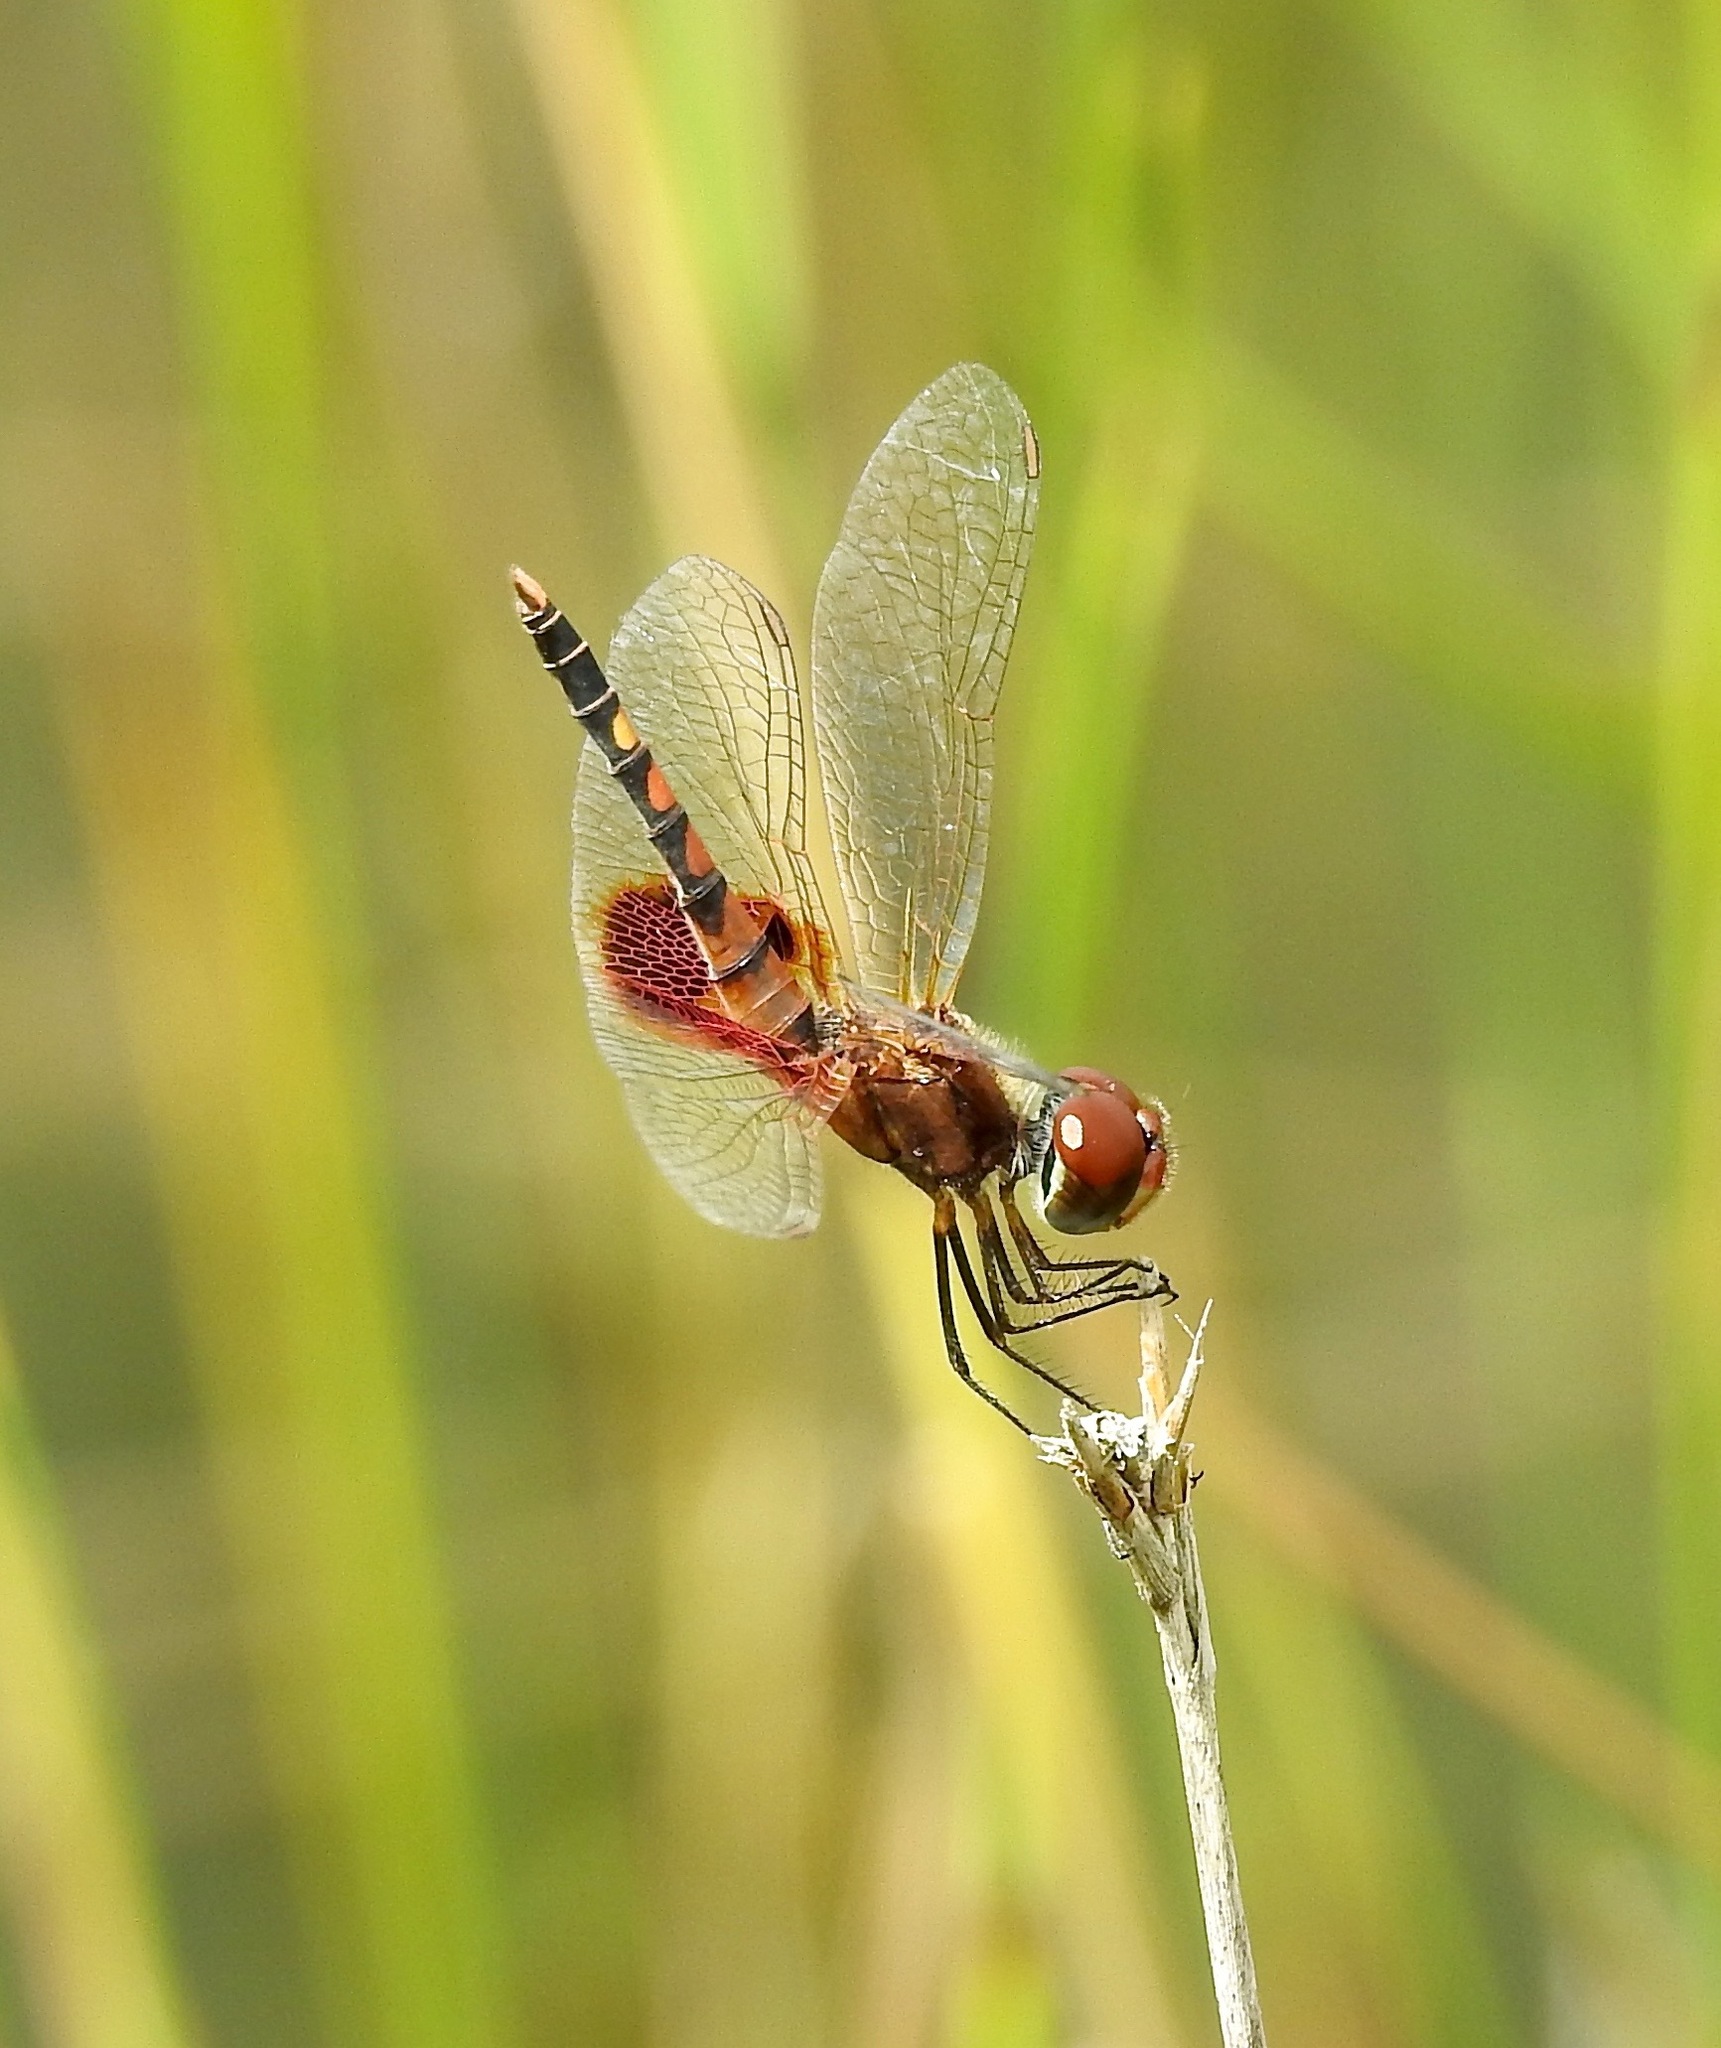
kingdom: Animalia
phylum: Arthropoda
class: Insecta
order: Odonata
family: Libellulidae
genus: Celithemis
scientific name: Celithemis amanda
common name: Amanda's pennant
